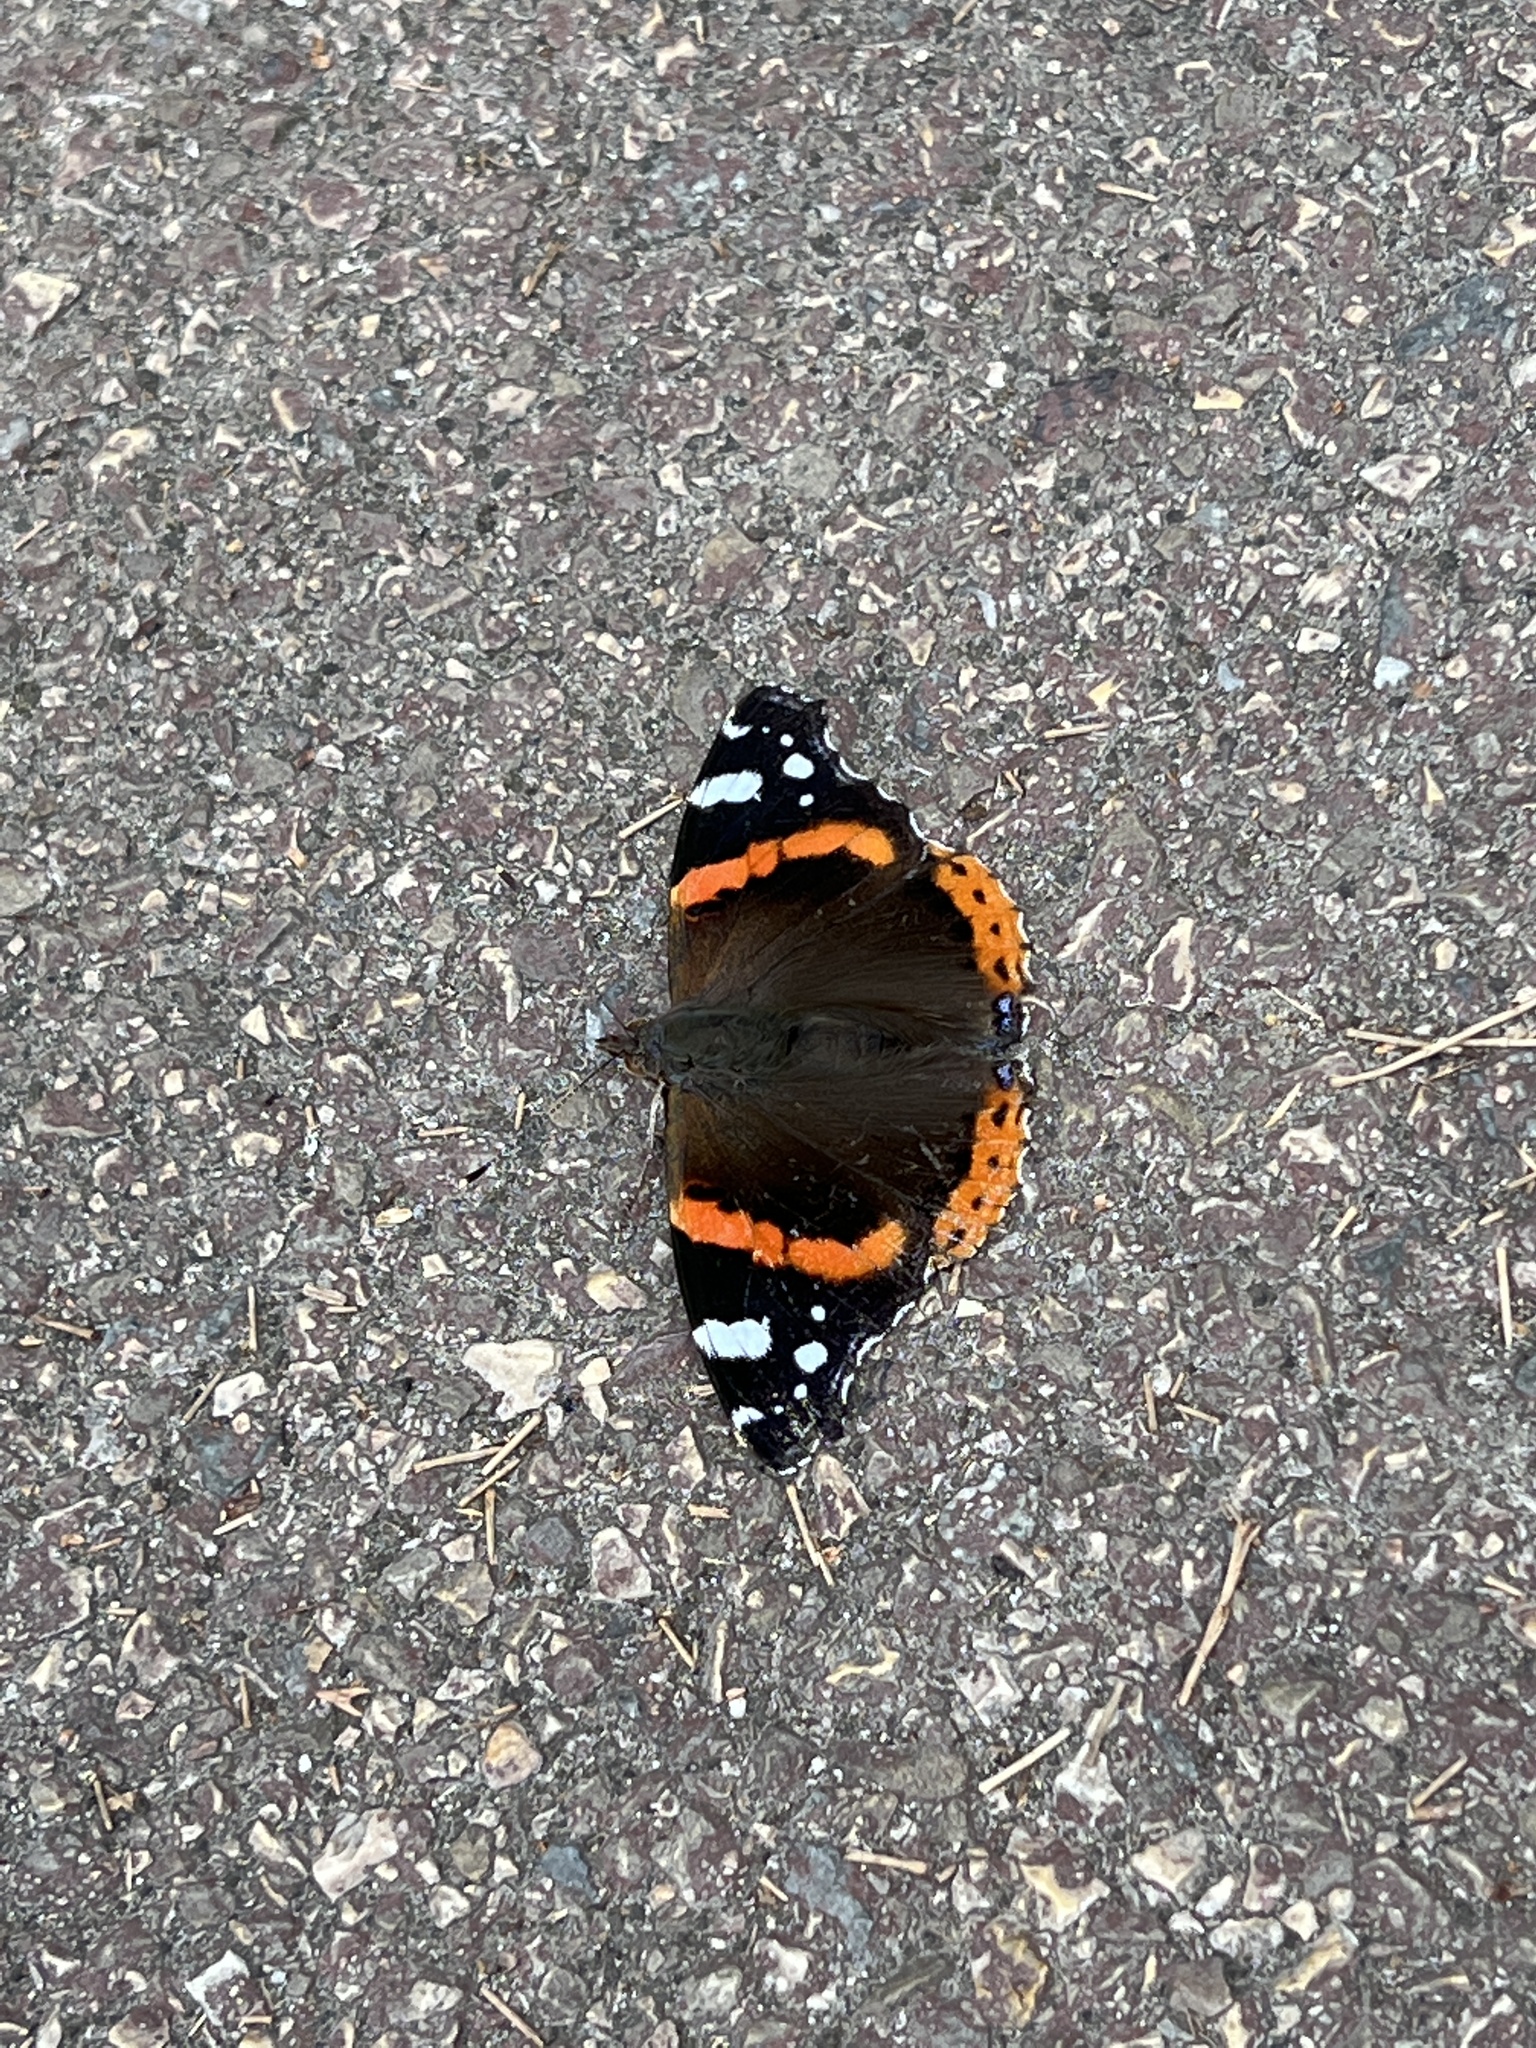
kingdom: Animalia
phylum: Arthropoda
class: Insecta
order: Lepidoptera
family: Nymphalidae
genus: Vanessa
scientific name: Vanessa atalanta
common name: Red admiral
